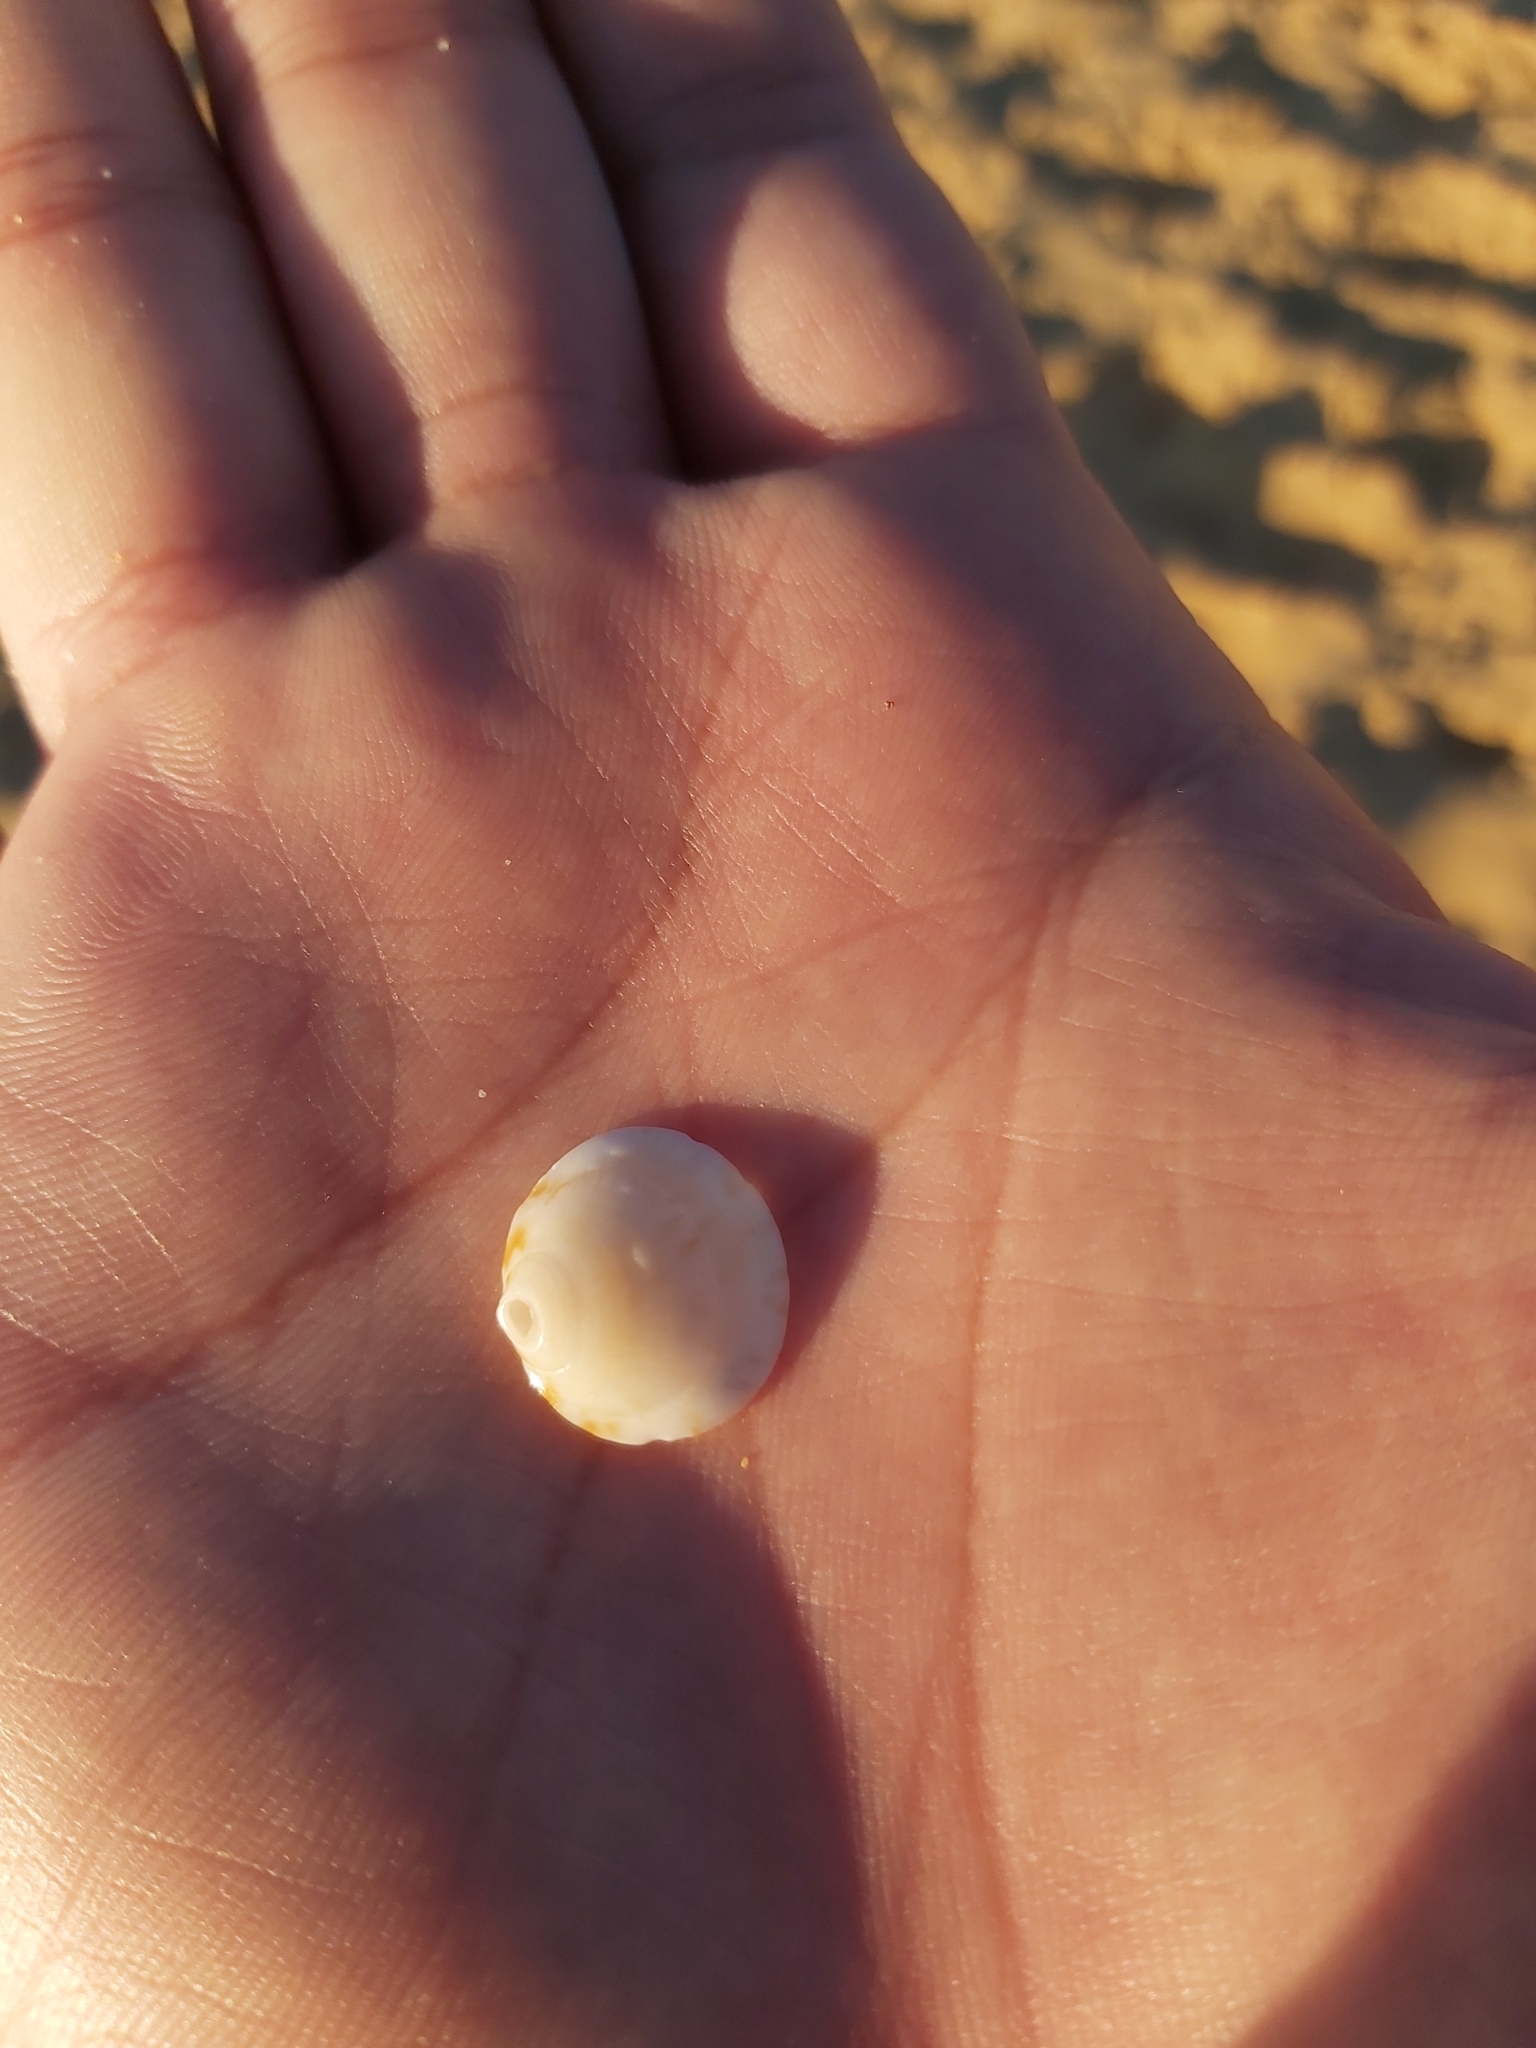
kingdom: Animalia
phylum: Mollusca
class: Bivalvia
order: Arcida
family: Glycymerididae
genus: Glycymeris
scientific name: Glycymeris grayana
